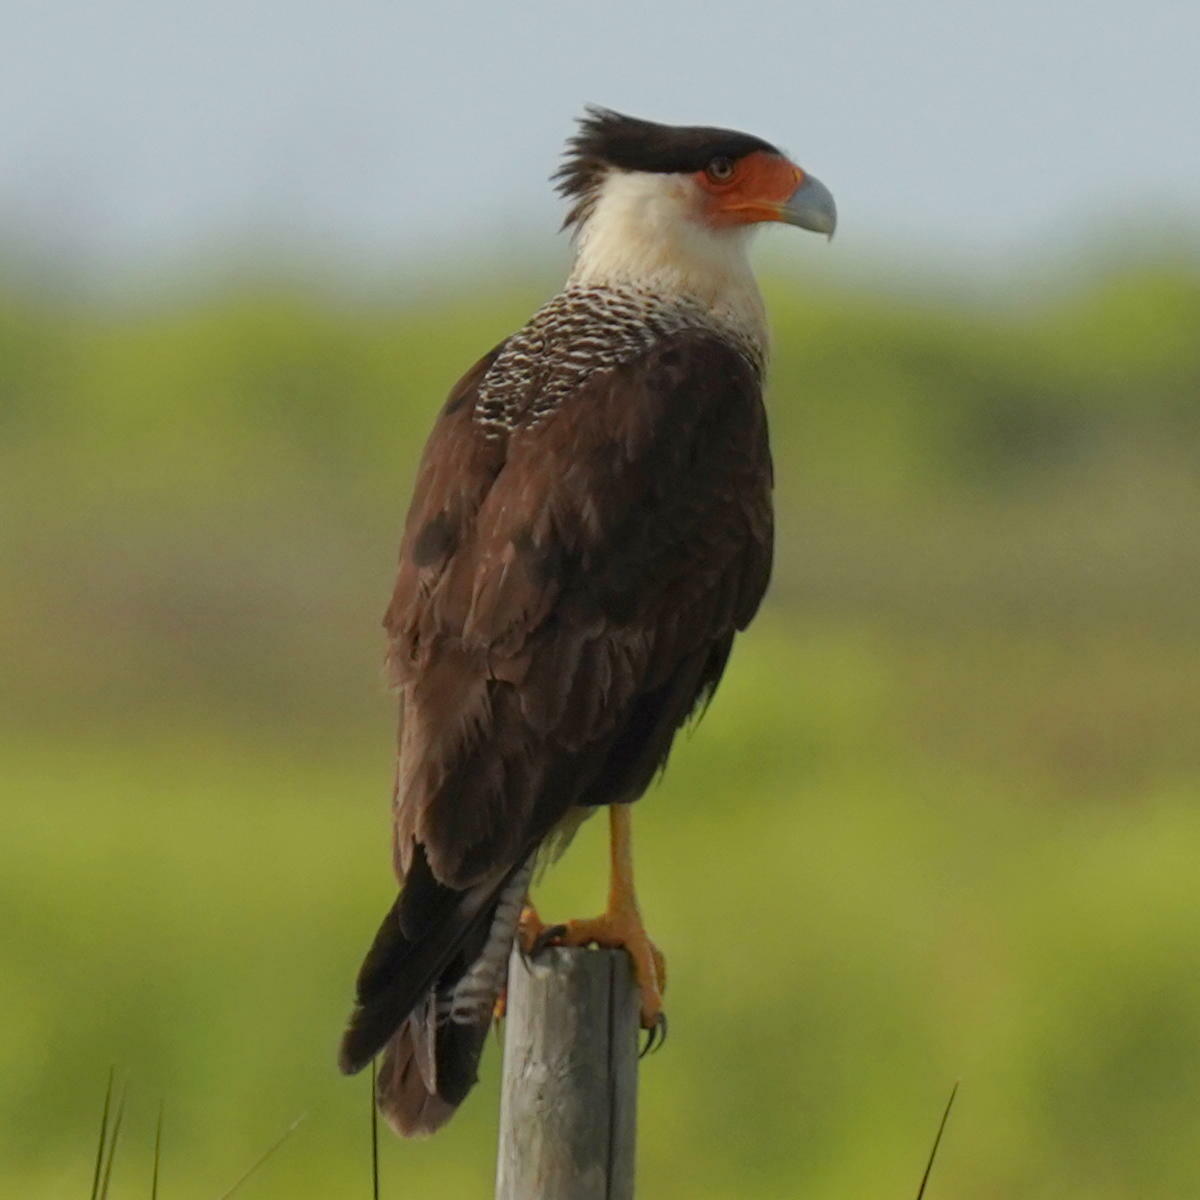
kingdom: Animalia
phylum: Chordata
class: Aves
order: Falconiformes
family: Falconidae
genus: Caracara
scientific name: Caracara plancus
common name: Southern caracara
